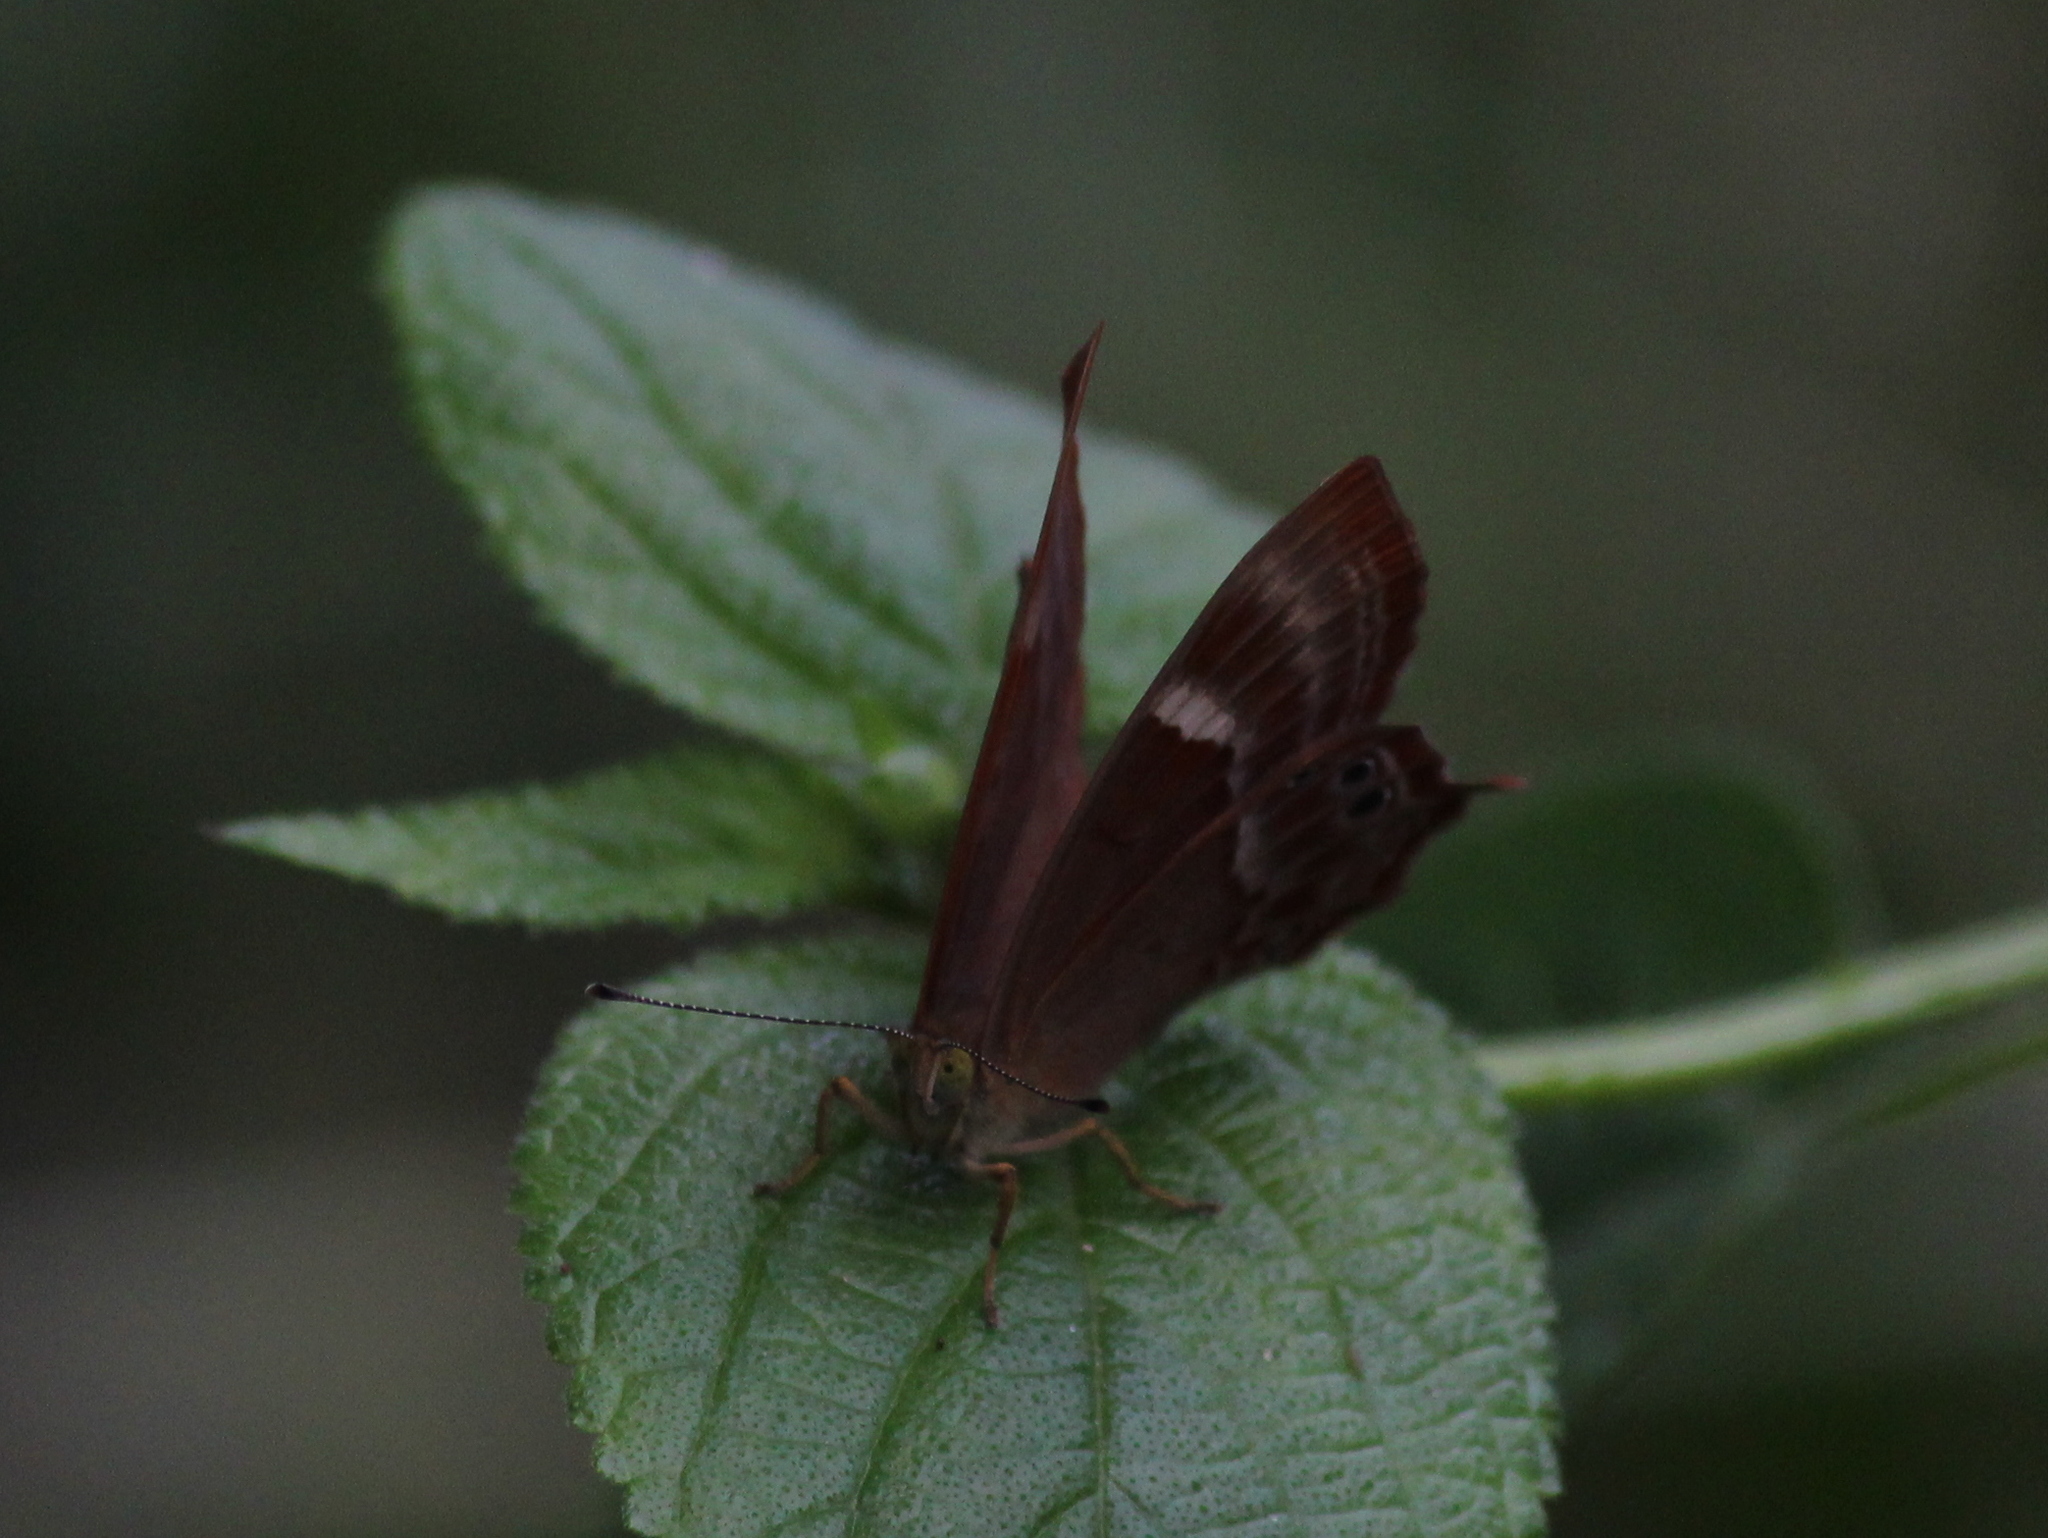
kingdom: Animalia
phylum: Arthropoda
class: Insecta
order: Lepidoptera
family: Lycaenidae
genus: Abisara
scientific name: Abisara bifasciata
